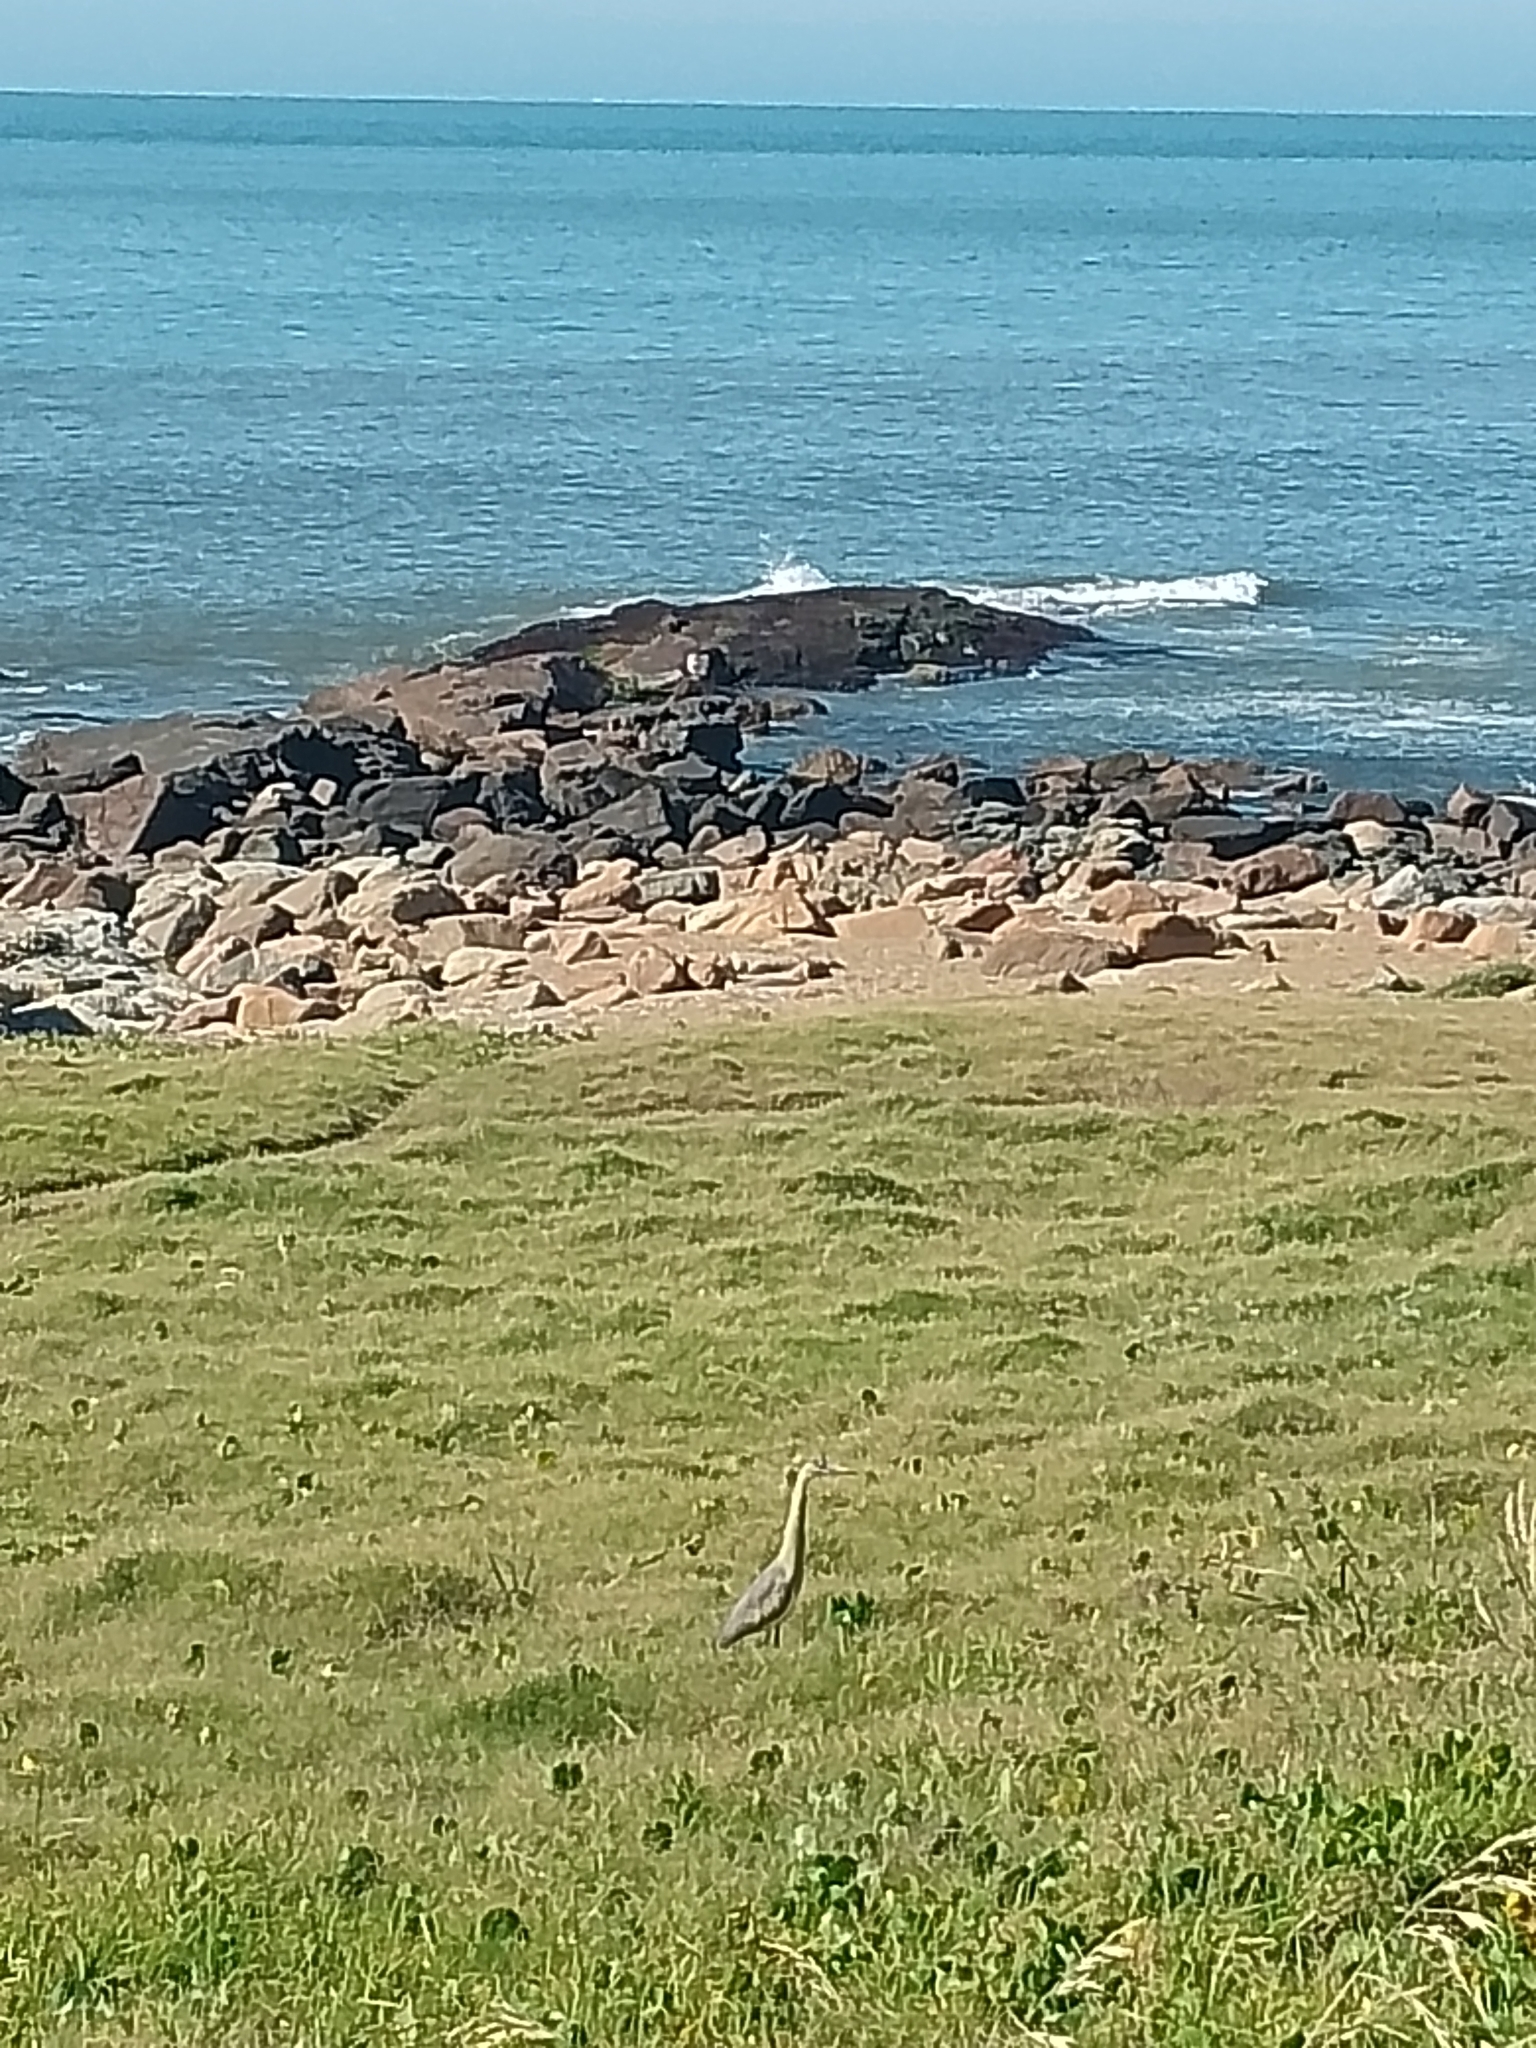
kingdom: Animalia
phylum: Chordata
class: Aves
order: Pelecaniformes
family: Ardeidae
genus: Syrigma
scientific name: Syrigma sibilatrix
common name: Whistling heron
